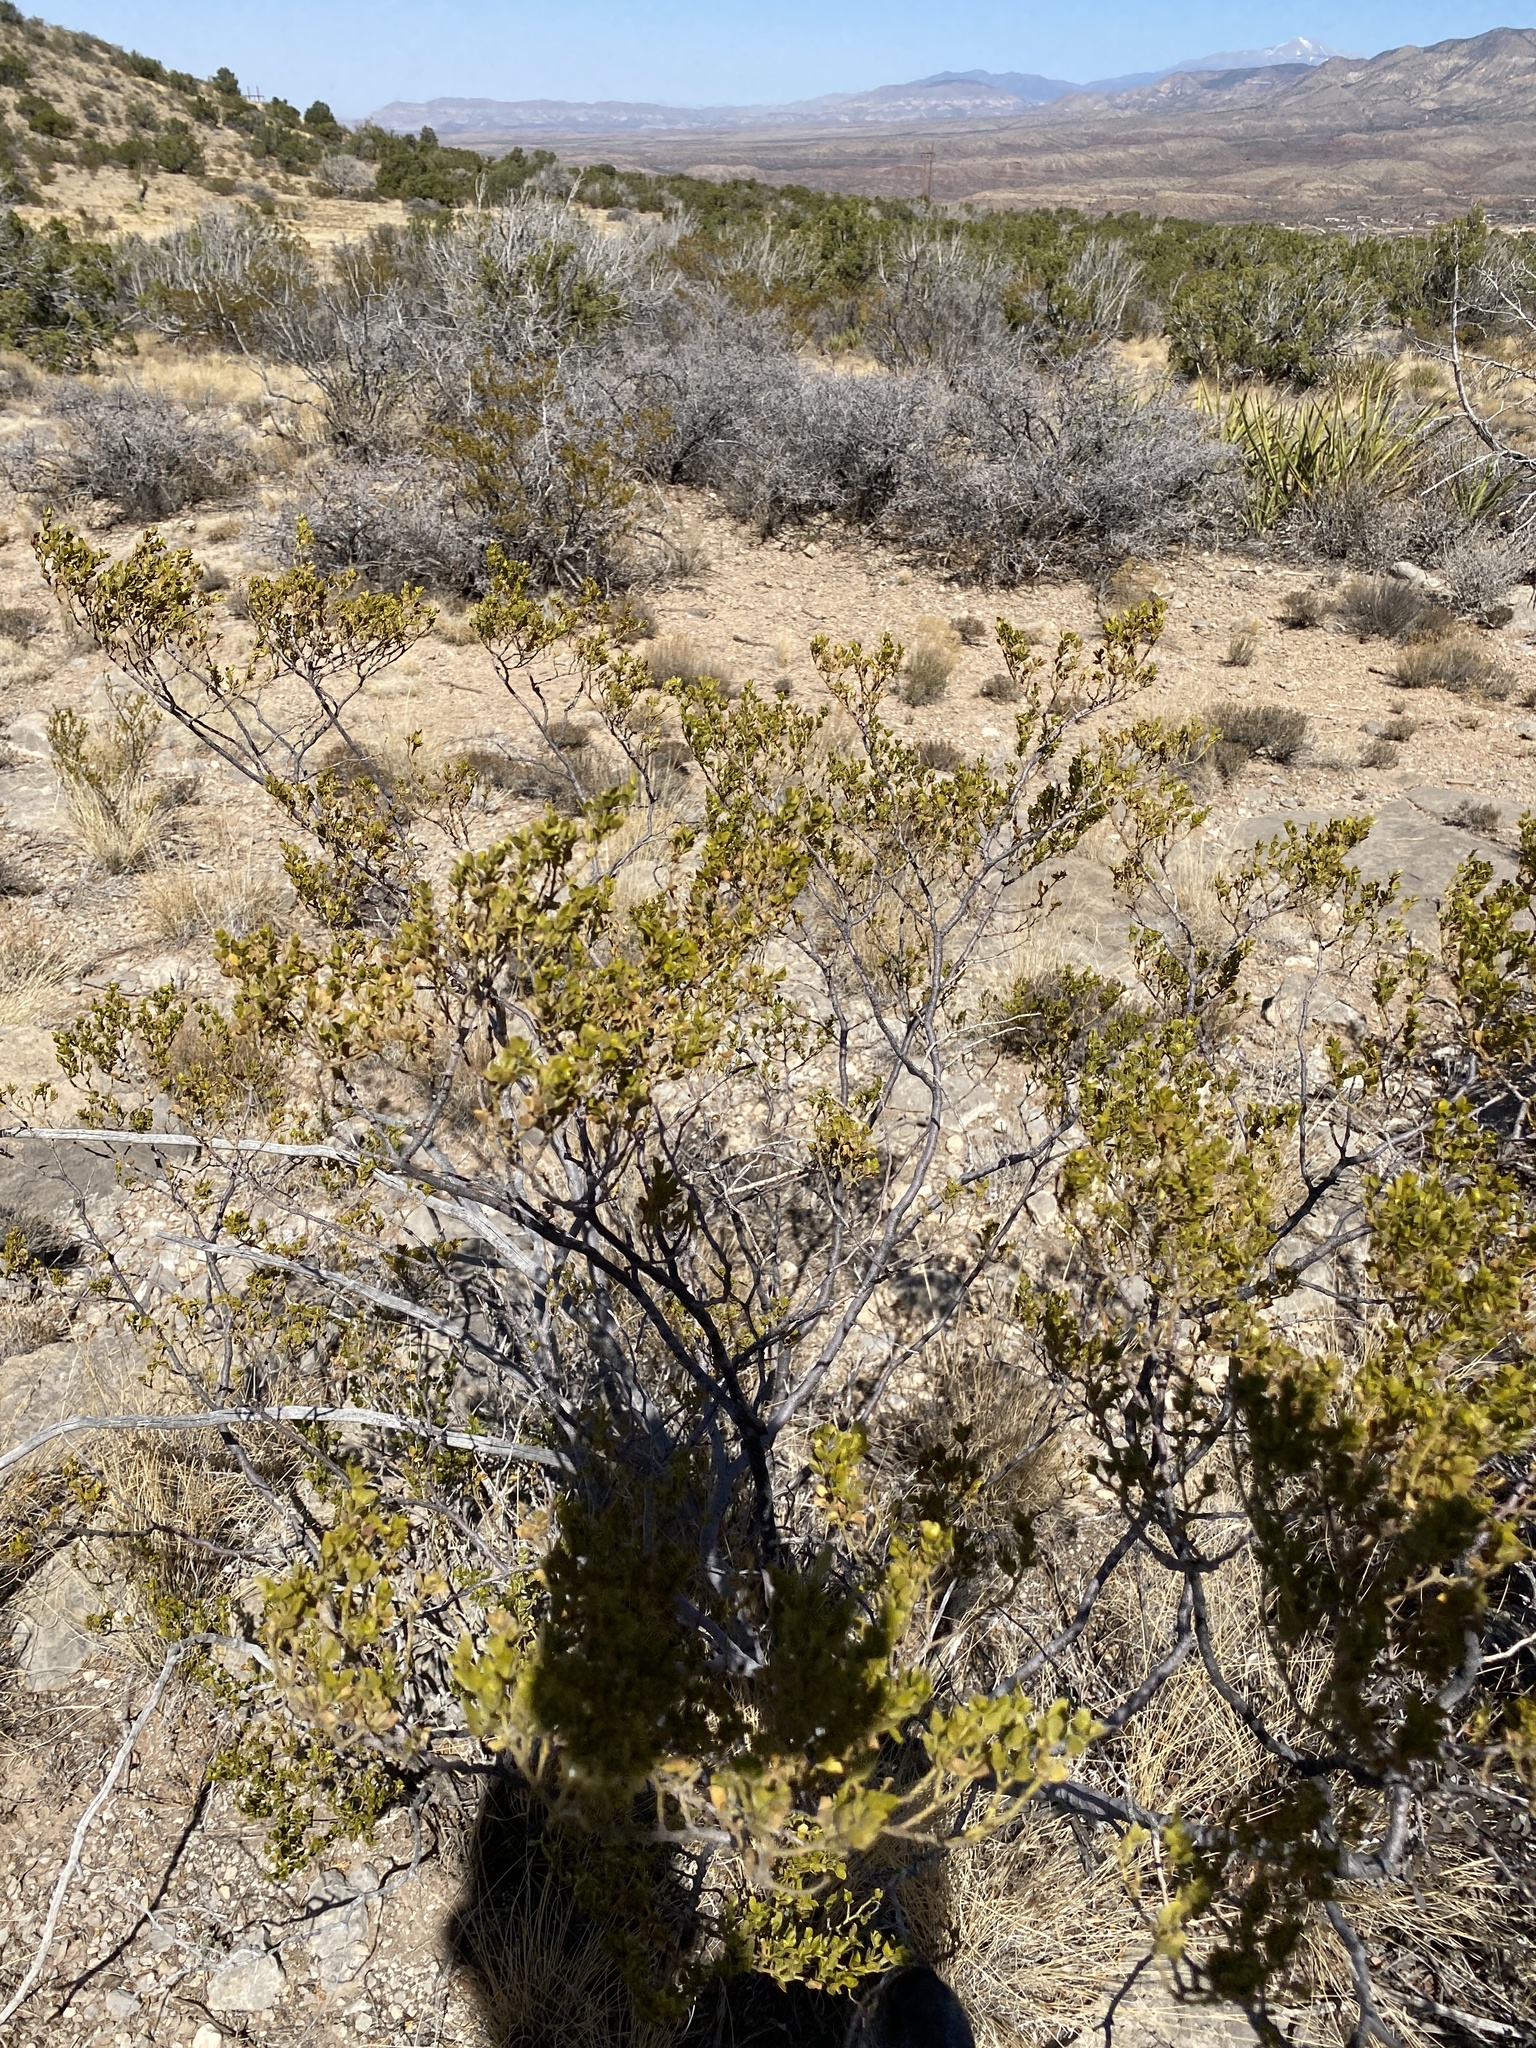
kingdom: Plantae
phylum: Tracheophyta
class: Magnoliopsida
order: Zygophyllales
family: Zygophyllaceae
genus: Larrea
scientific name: Larrea tridentata
